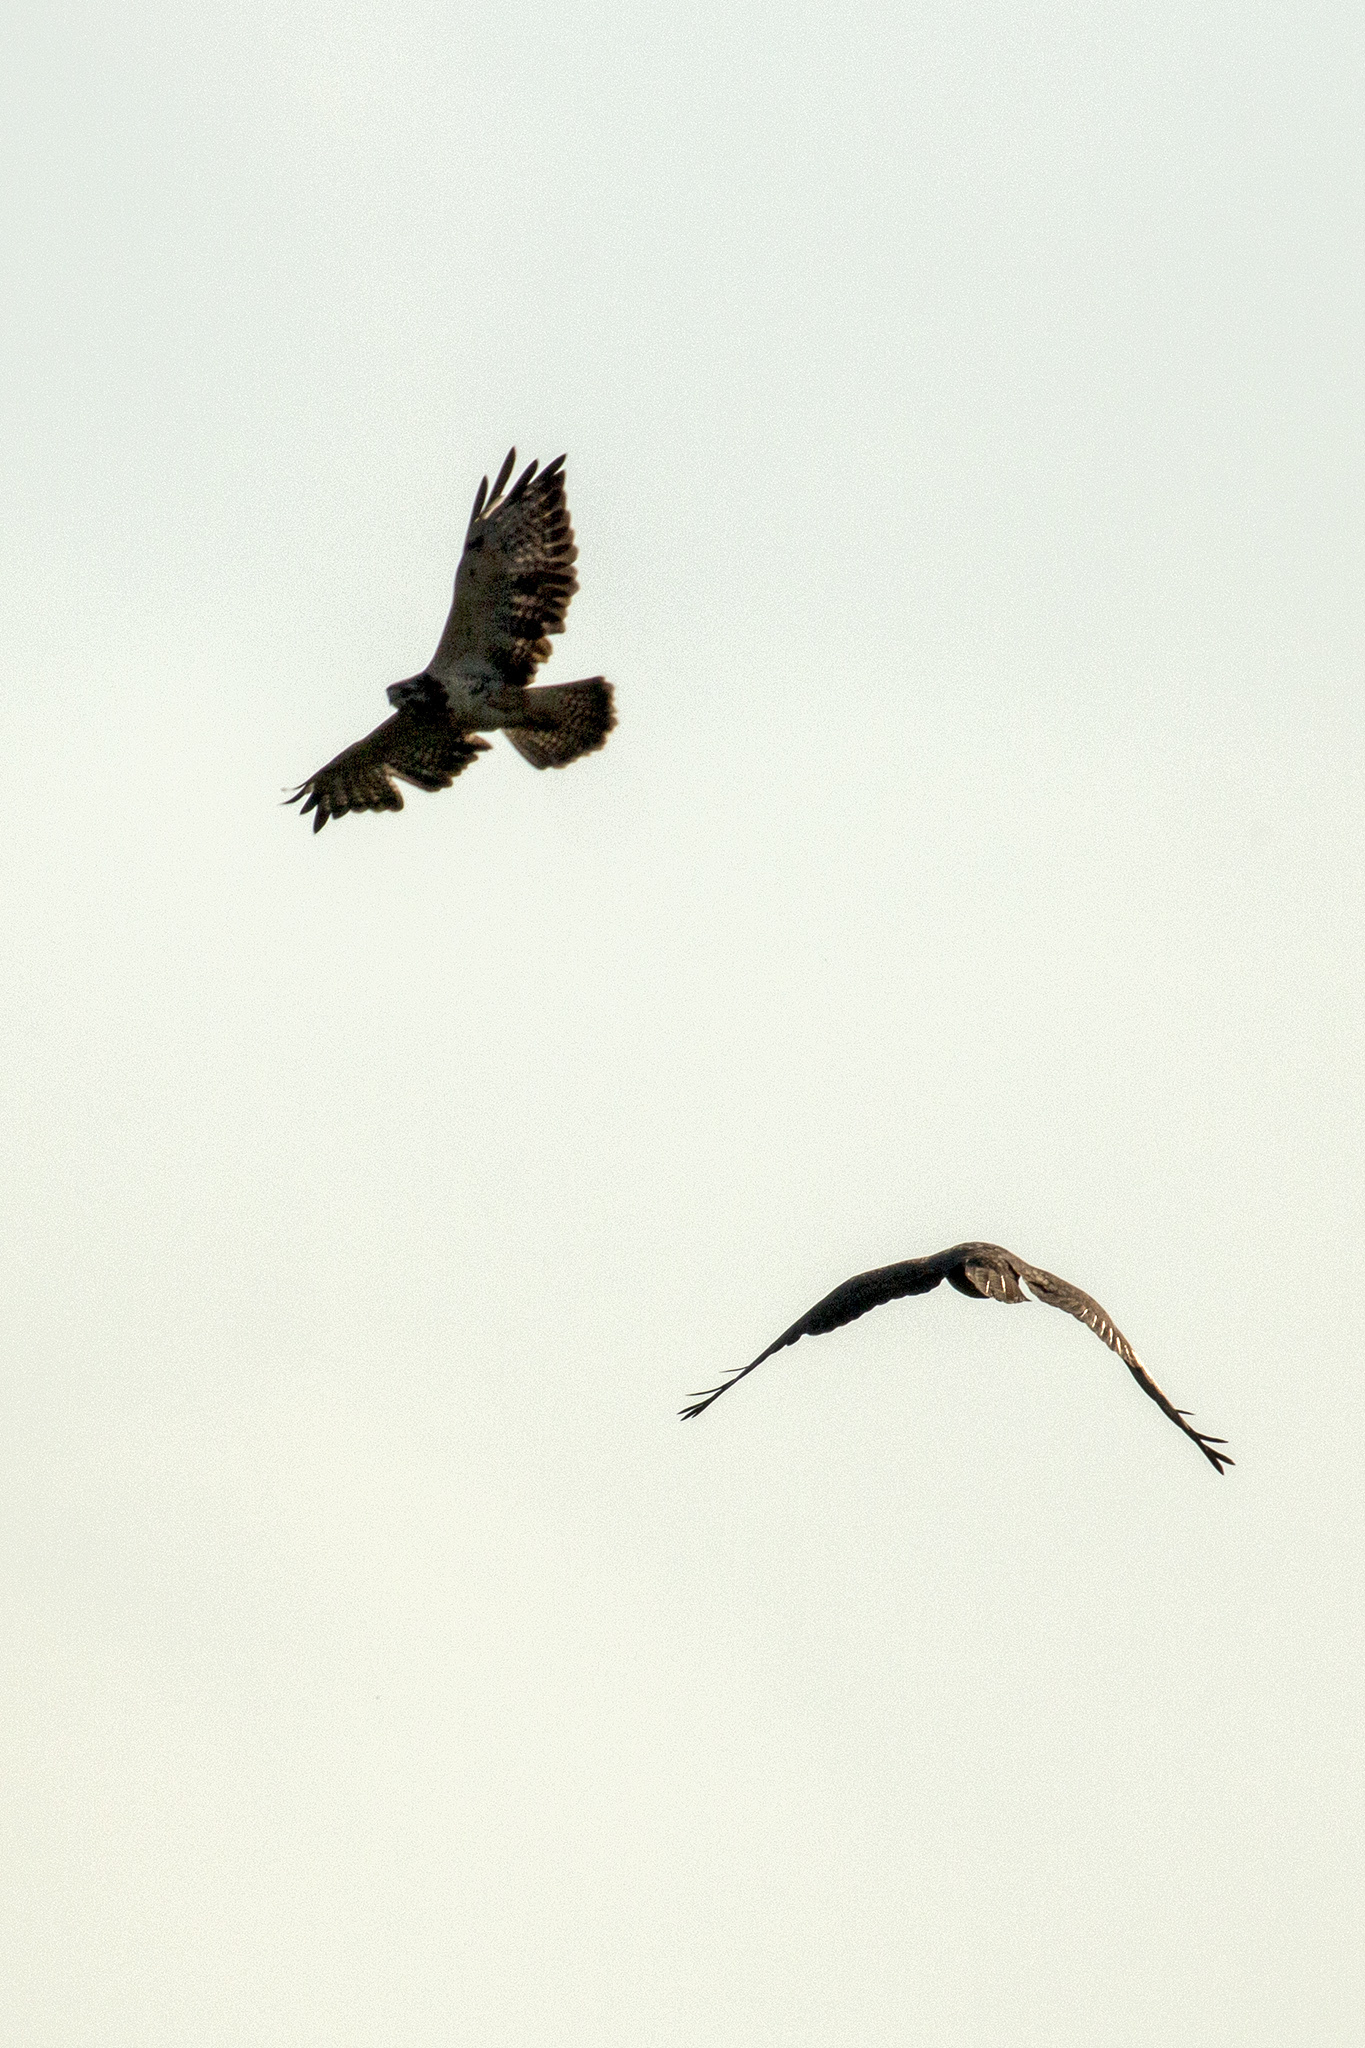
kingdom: Animalia
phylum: Chordata
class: Aves
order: Accipitriformes
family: Accipitridae
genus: Buteo
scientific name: Buteo buteo
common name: Common buzzard
